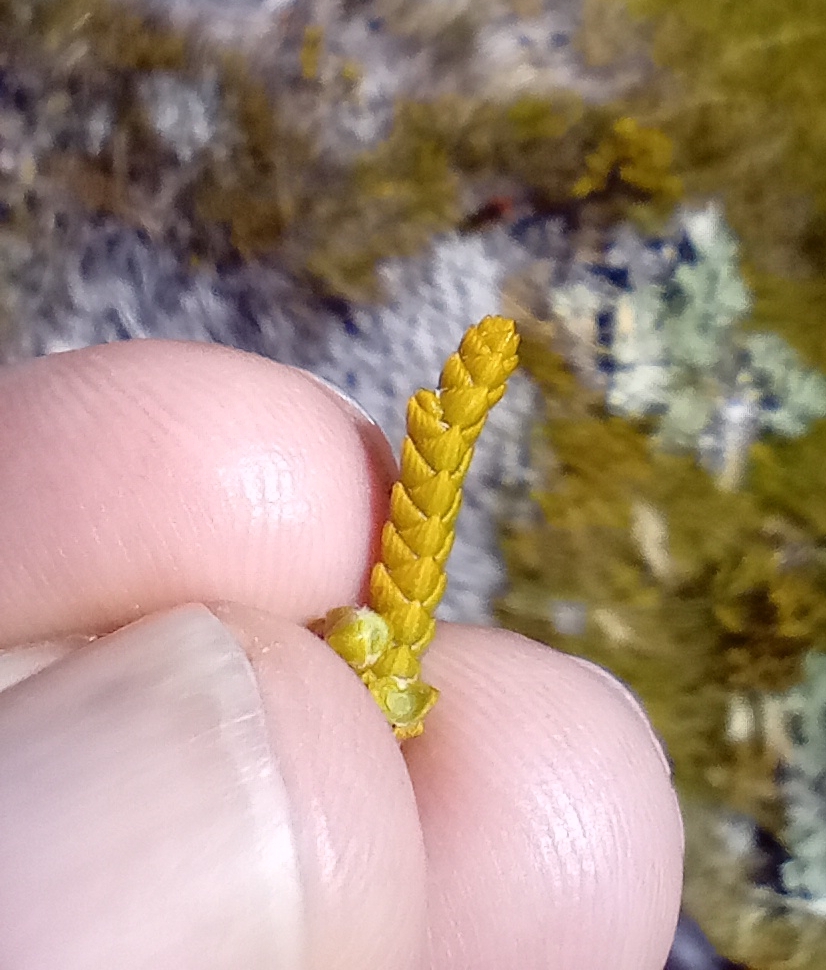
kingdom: Plantae
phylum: Tracheophyta
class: Magnoliopsida
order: Lamiales
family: Plantaginaceae
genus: Veronica
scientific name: Veronica lycopodioides
